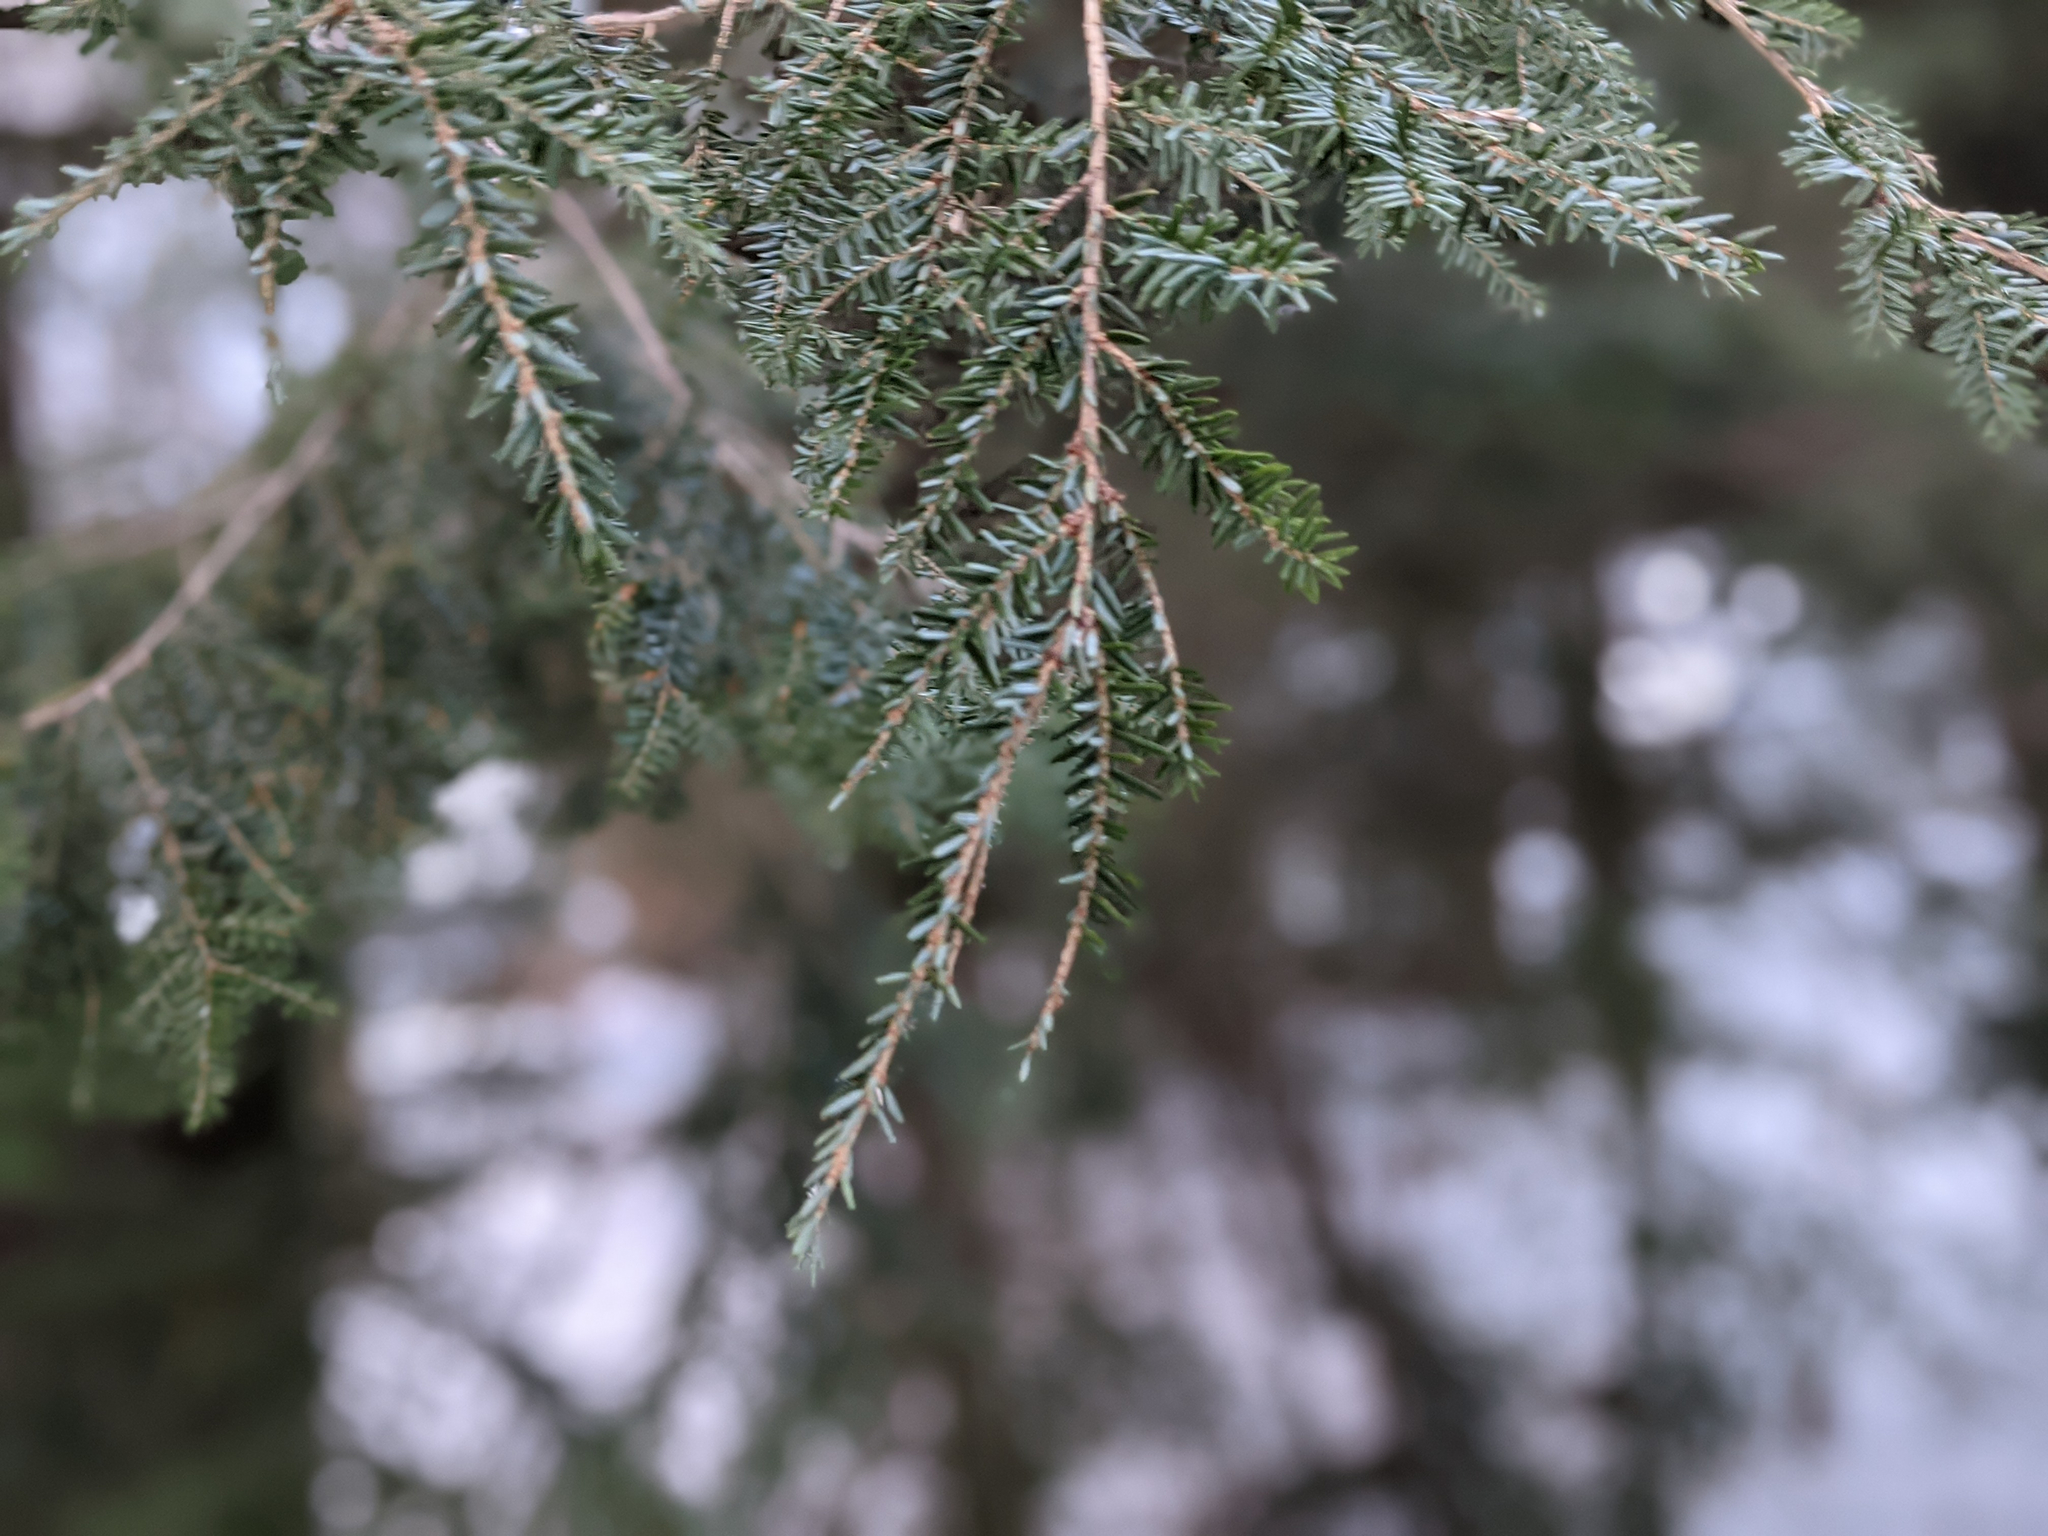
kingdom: Plantae
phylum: Tracheophyta
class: Pinopsida
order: Pinales
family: Pinaceae
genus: Tsuga
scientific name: Tsuga canadensis
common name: Eastern hemlock
